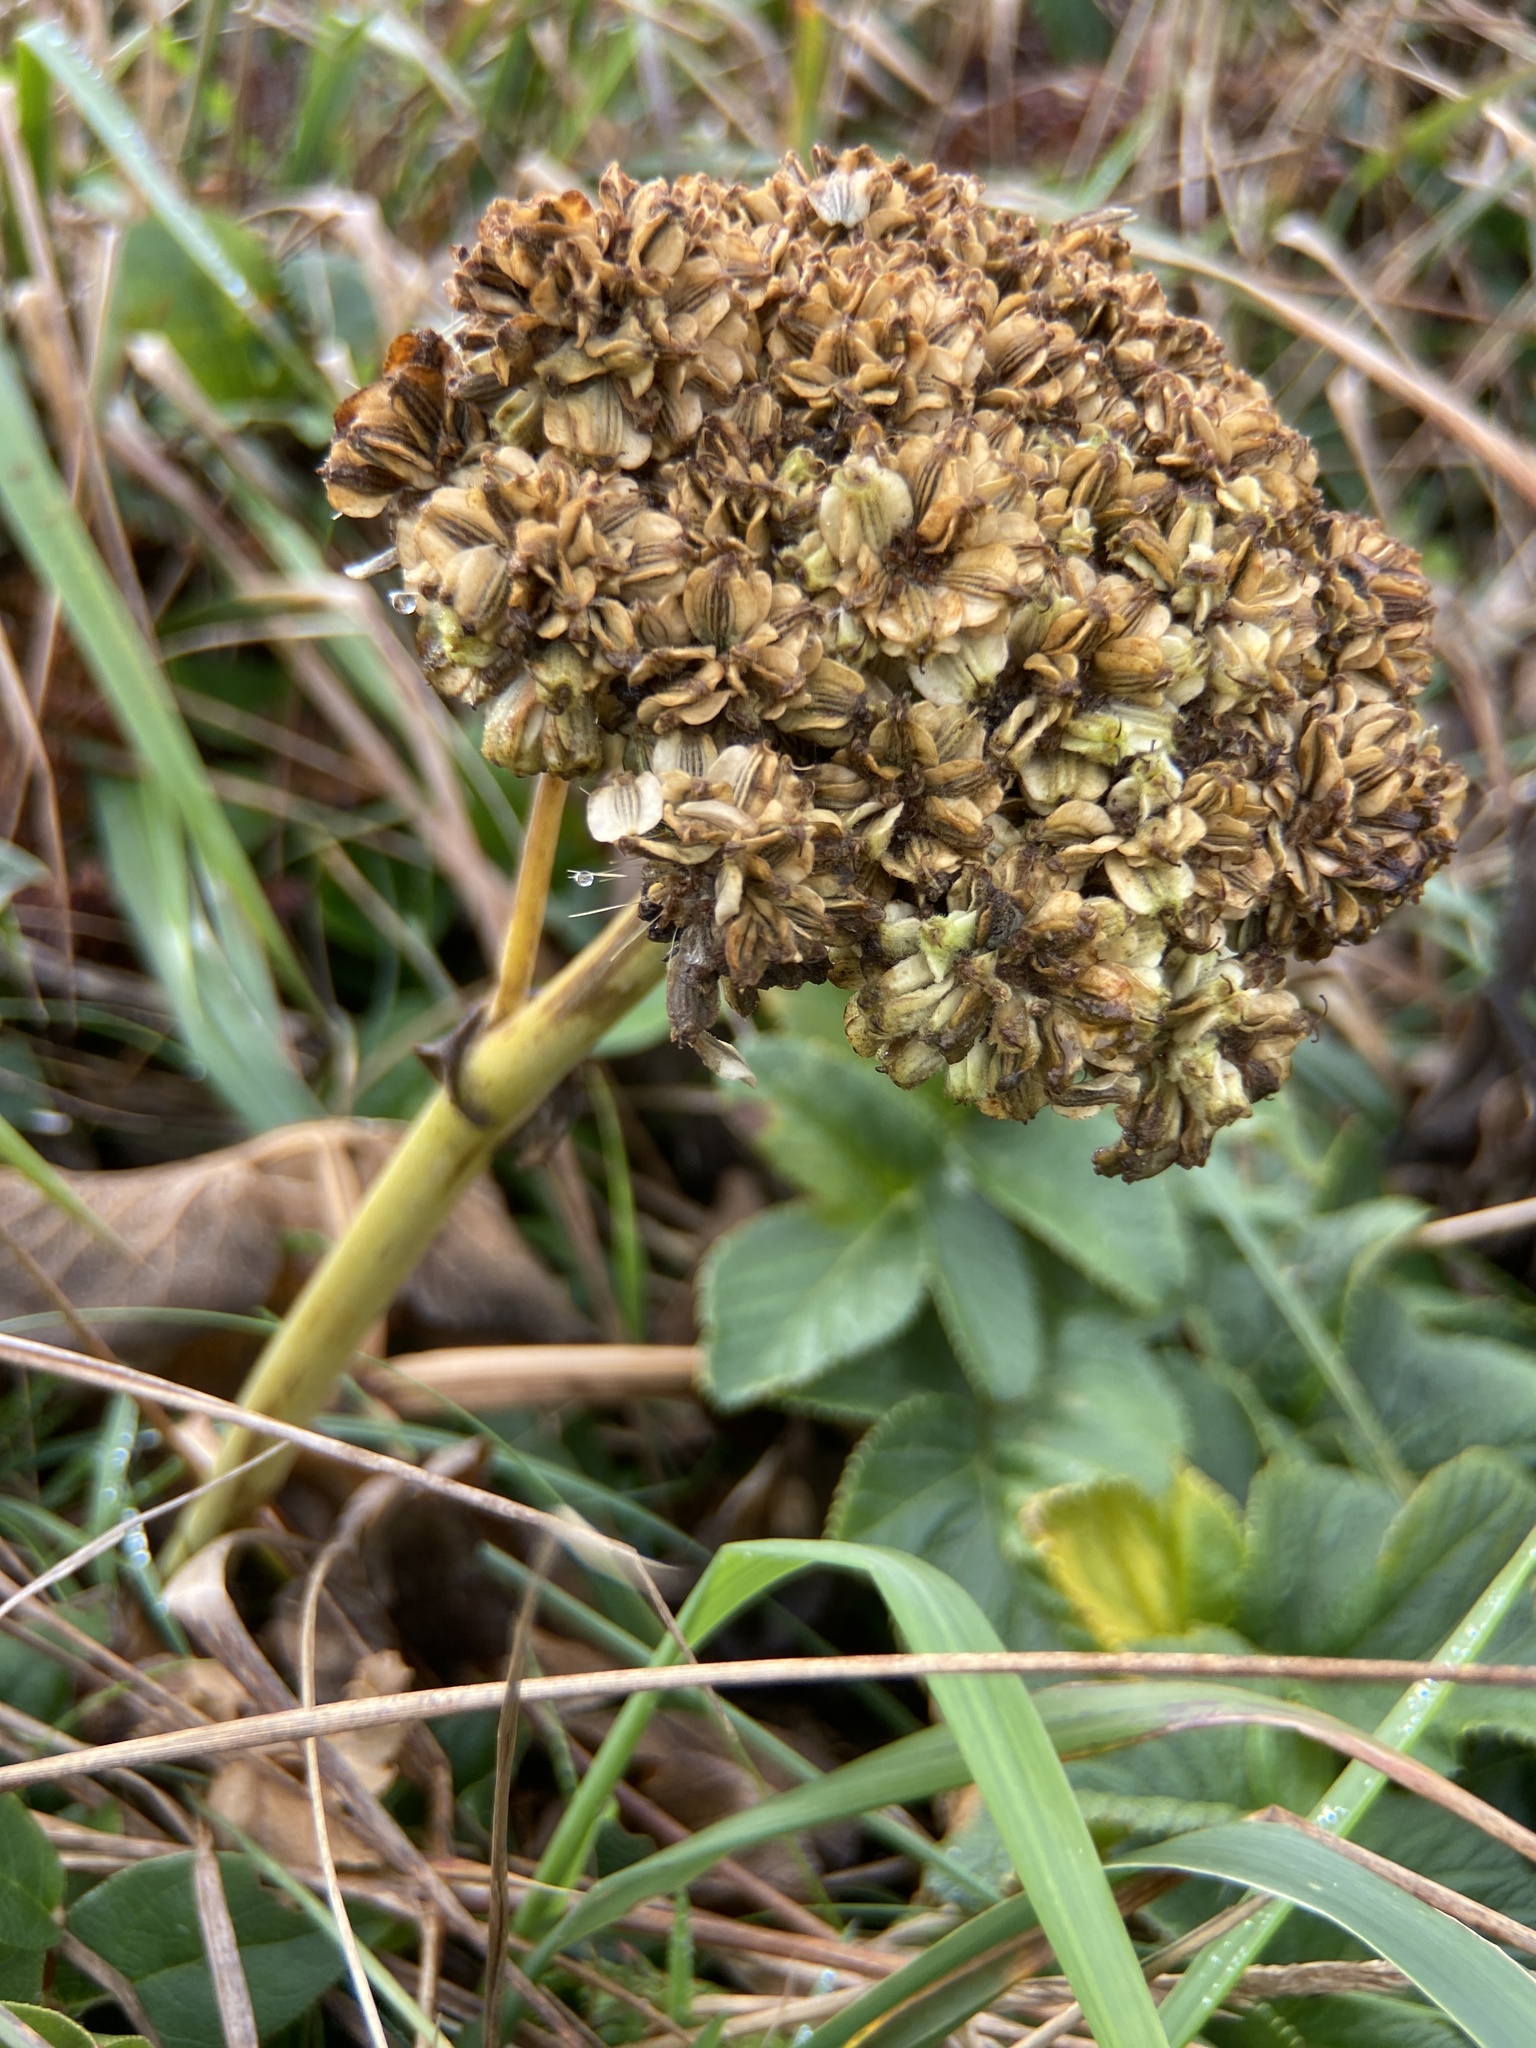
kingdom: Plantae
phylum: Tracheophyta
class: Magnoliopsida
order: Apiales
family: Apiaceae
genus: Angelica
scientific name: Angelica hendersonii
